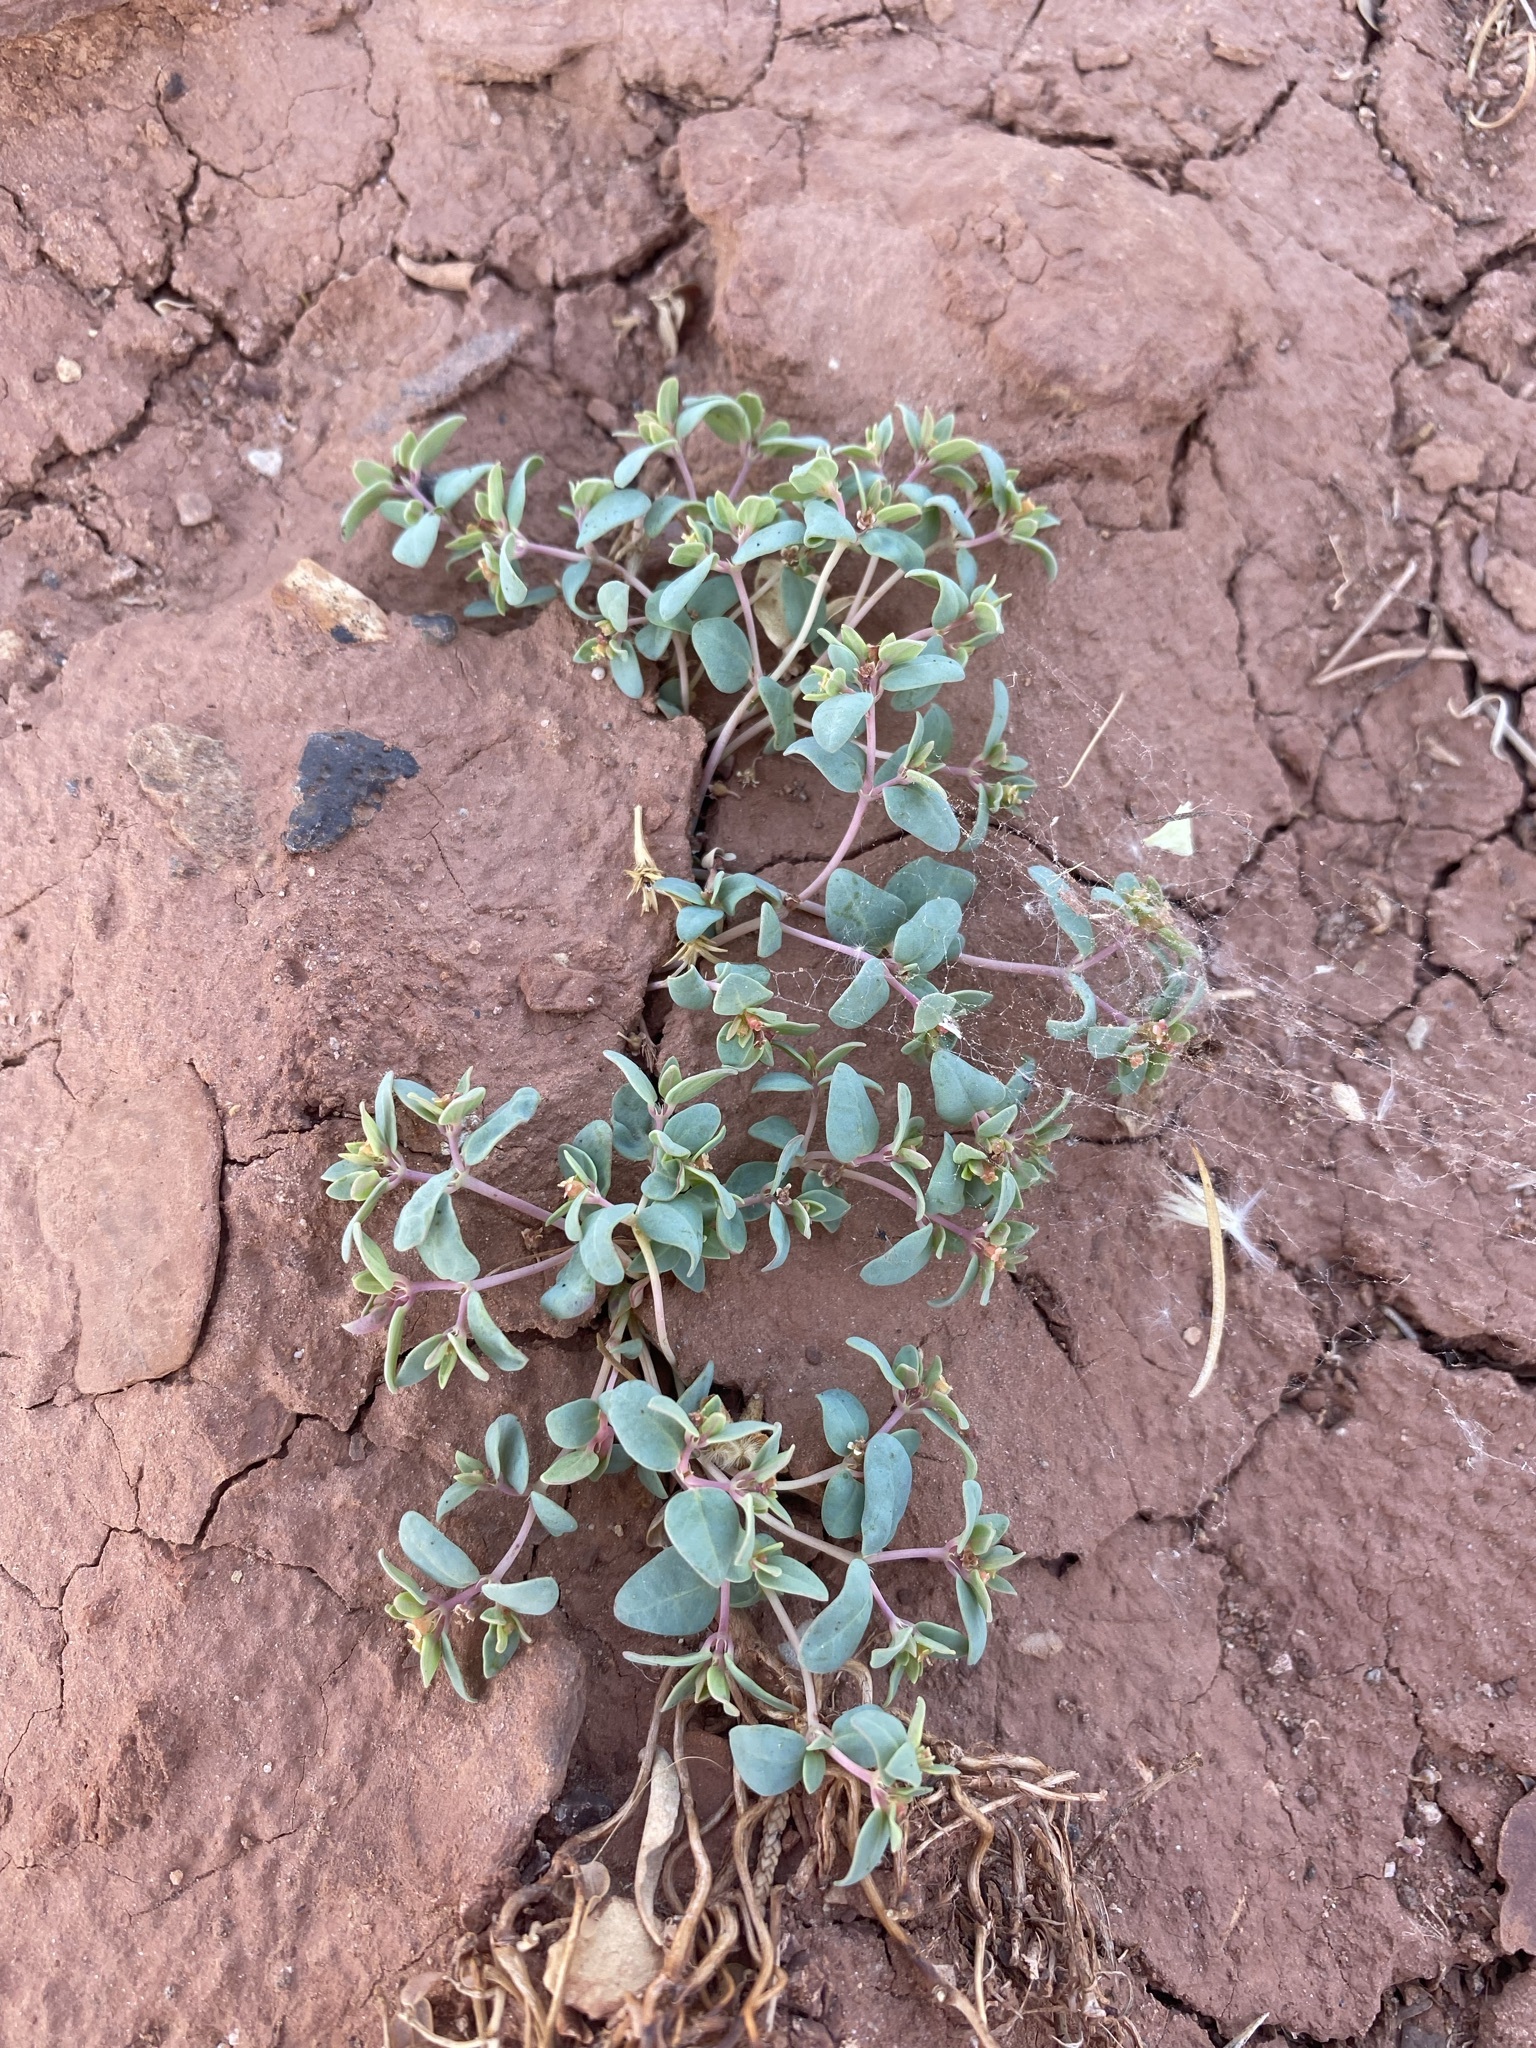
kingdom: Plantae
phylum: Tracheophyta
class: Magnoliopsida
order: Malpighiales
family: Euphorbiaceae
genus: Euphorbia
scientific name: Euphorbia fendleri
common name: Fendler's euphorbia
